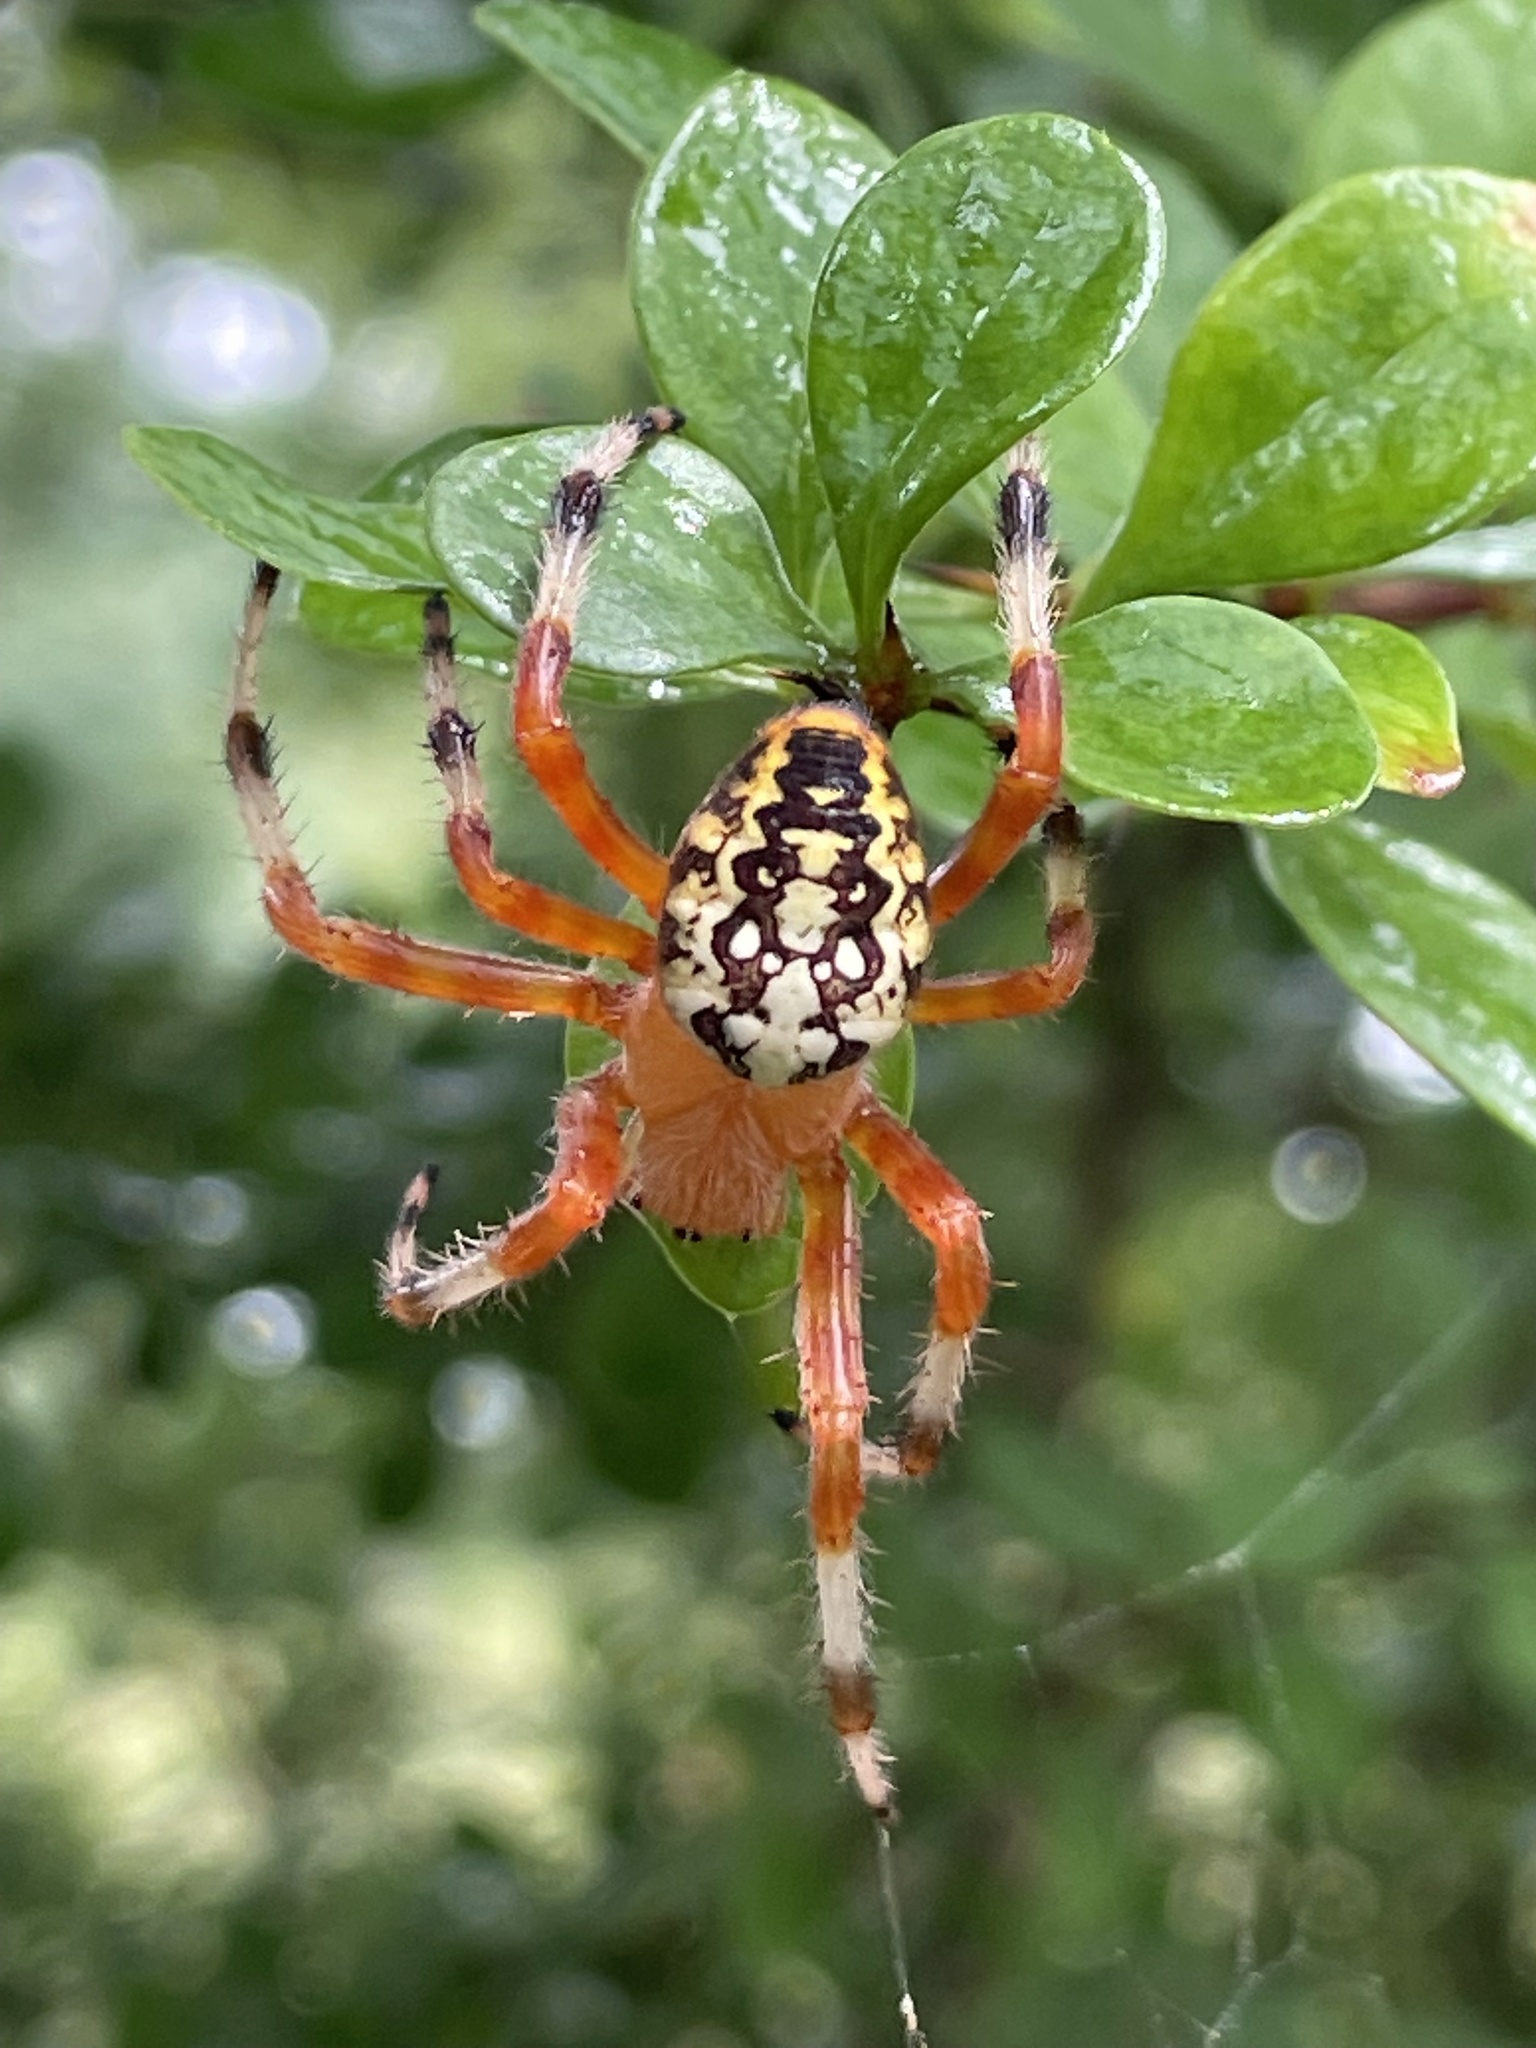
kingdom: Animalia
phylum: Arthropoda
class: Arachnida
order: Araneae
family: Araneidae
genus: Araneus
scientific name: Araneus marmoreus
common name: Marbled orbweaver
